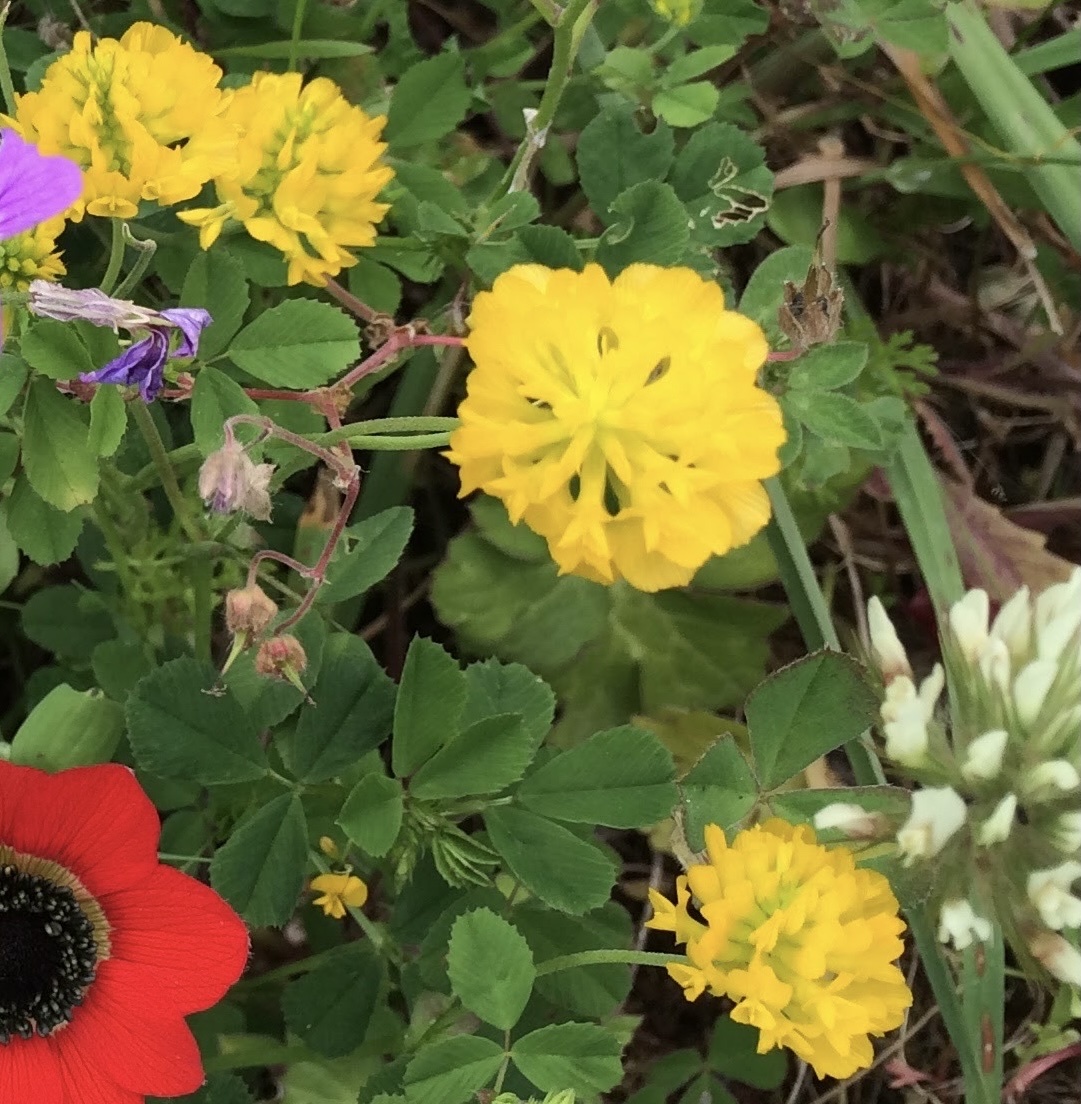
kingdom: Plantae
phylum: Tracheophyta
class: Magnoliopsida
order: Fabales
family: Fabaceae
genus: Trigonella
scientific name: Trigonella balansae
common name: Sickle-fruited fenugreek
